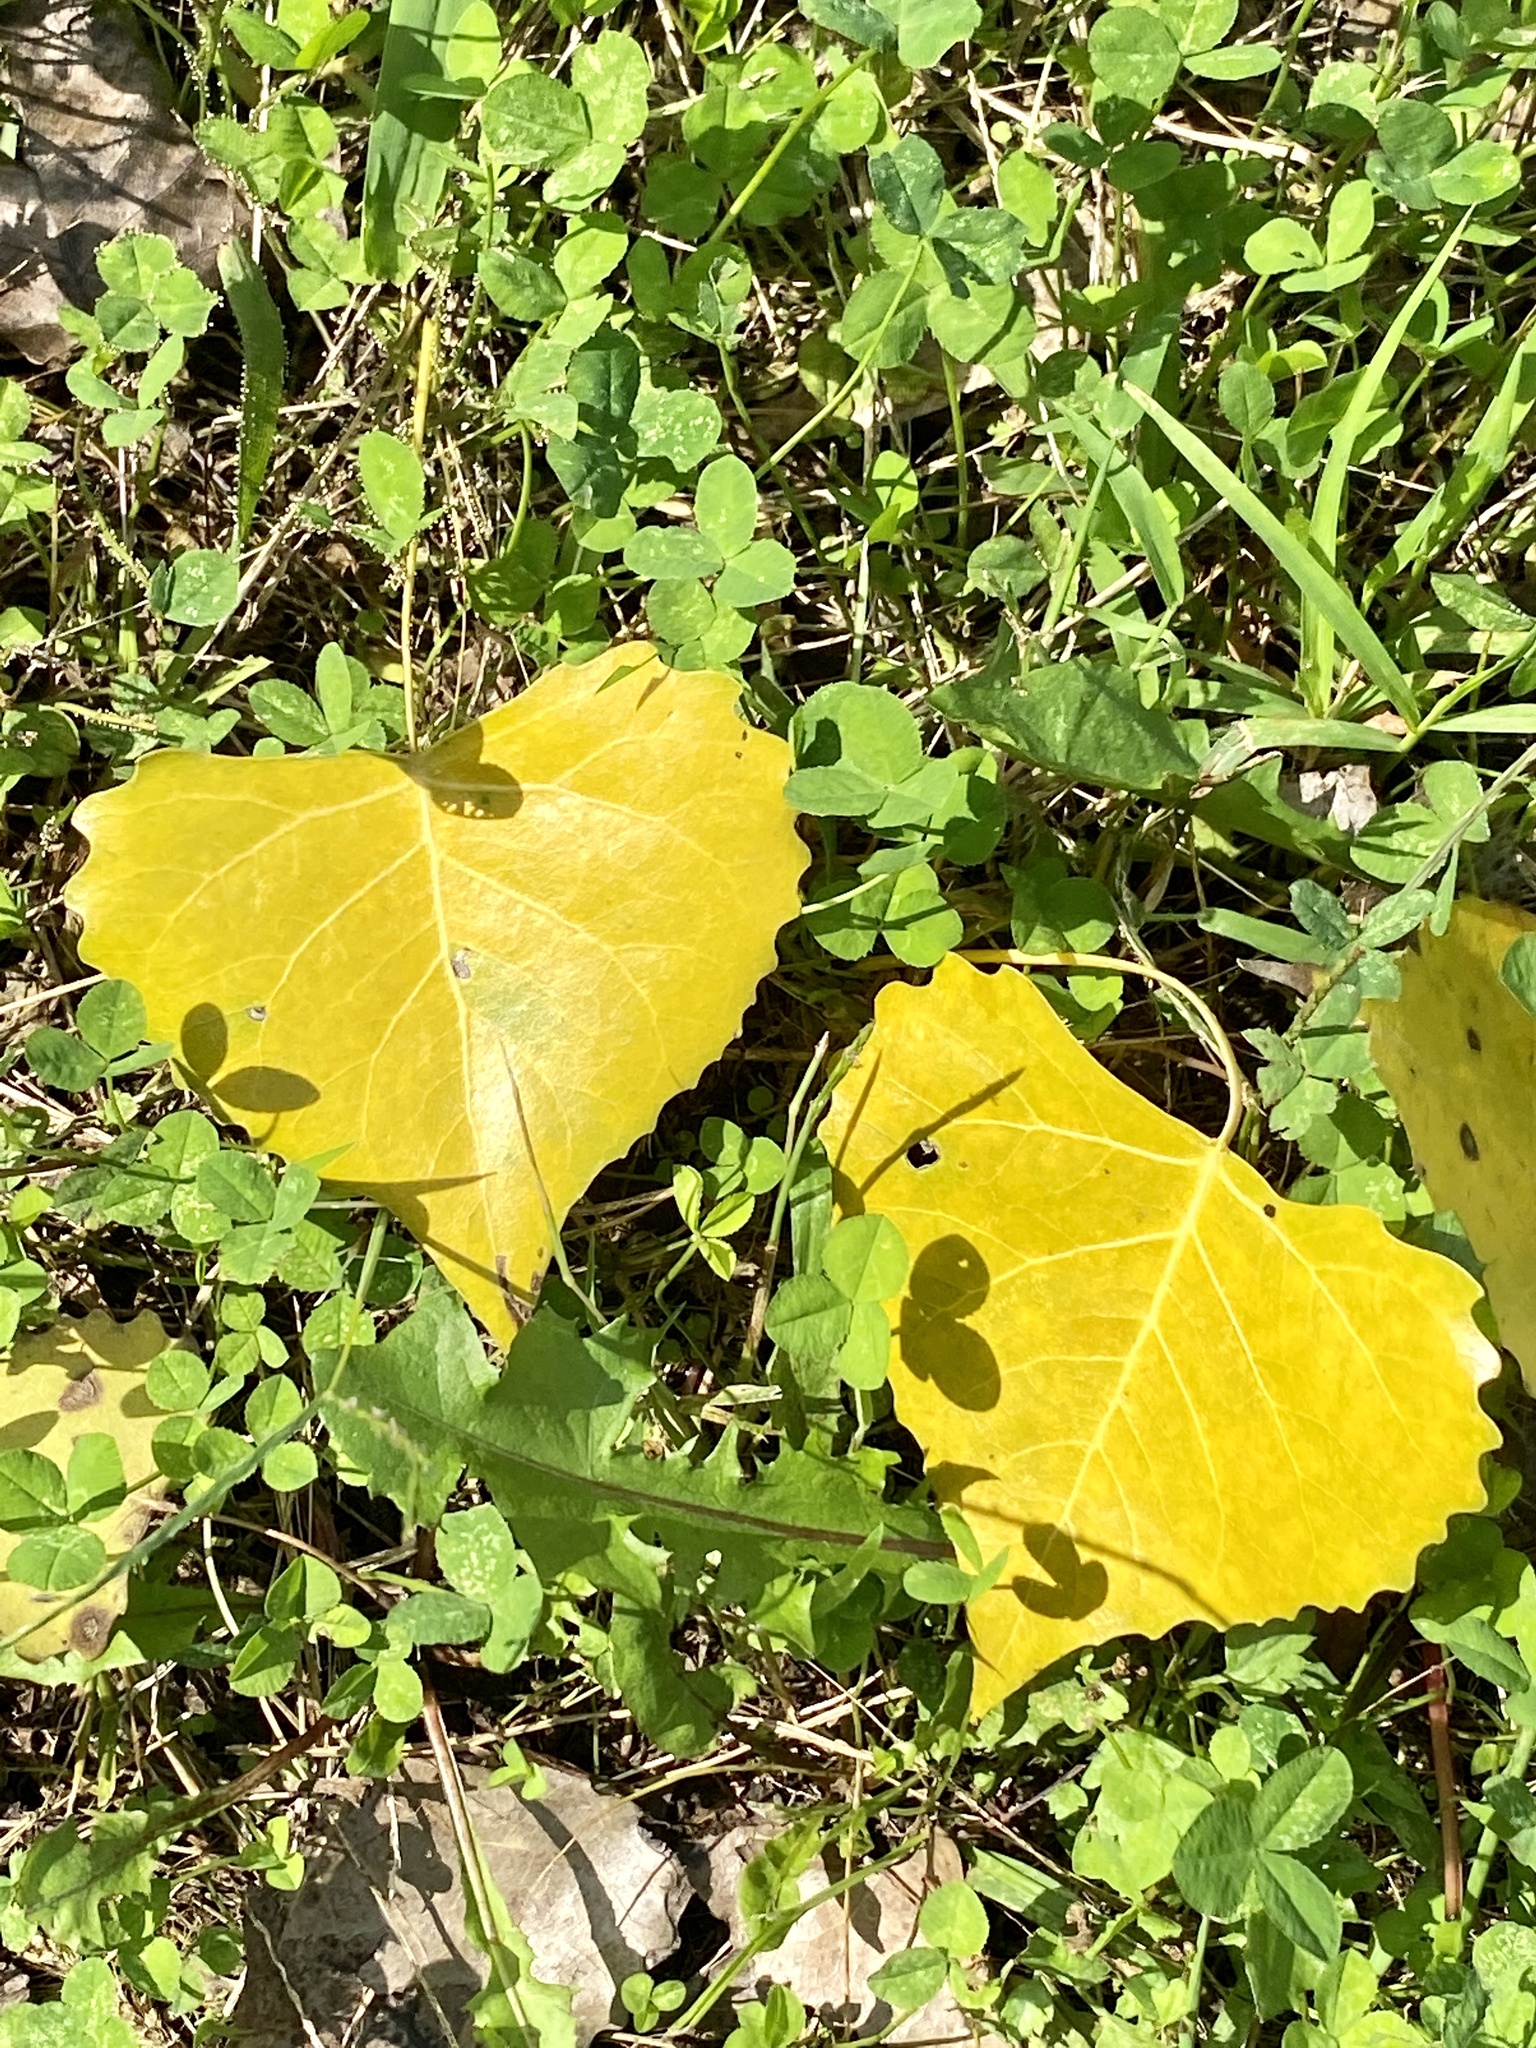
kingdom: Plantae
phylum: Tracheophyta
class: Magnoliopsida
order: Malpighiales
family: Salicaceae
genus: Populus
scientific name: Populus deltoides
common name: Eastern cottonwood
